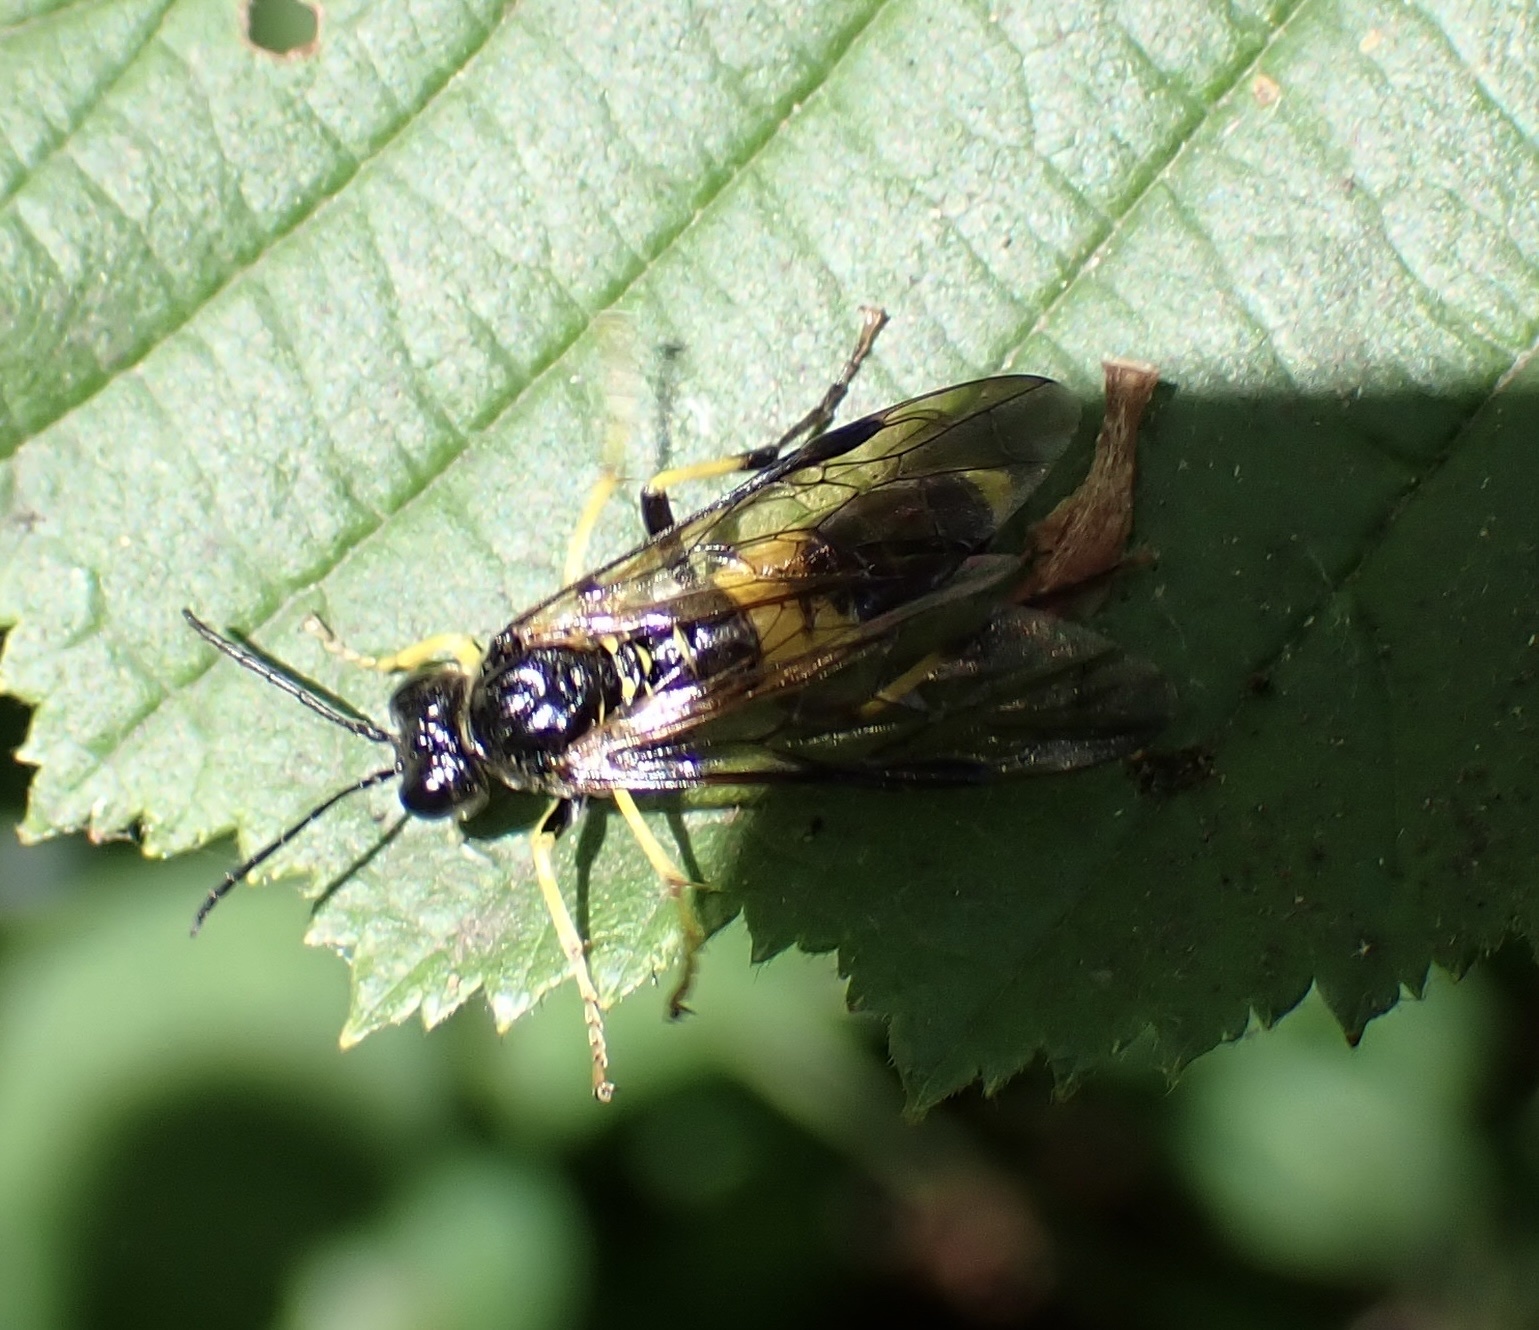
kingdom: Animalia
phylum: Arthropoda
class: Insecta
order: Hymenoptera
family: Tenthredinidae
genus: Tenthredo
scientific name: Tenthredo temula
